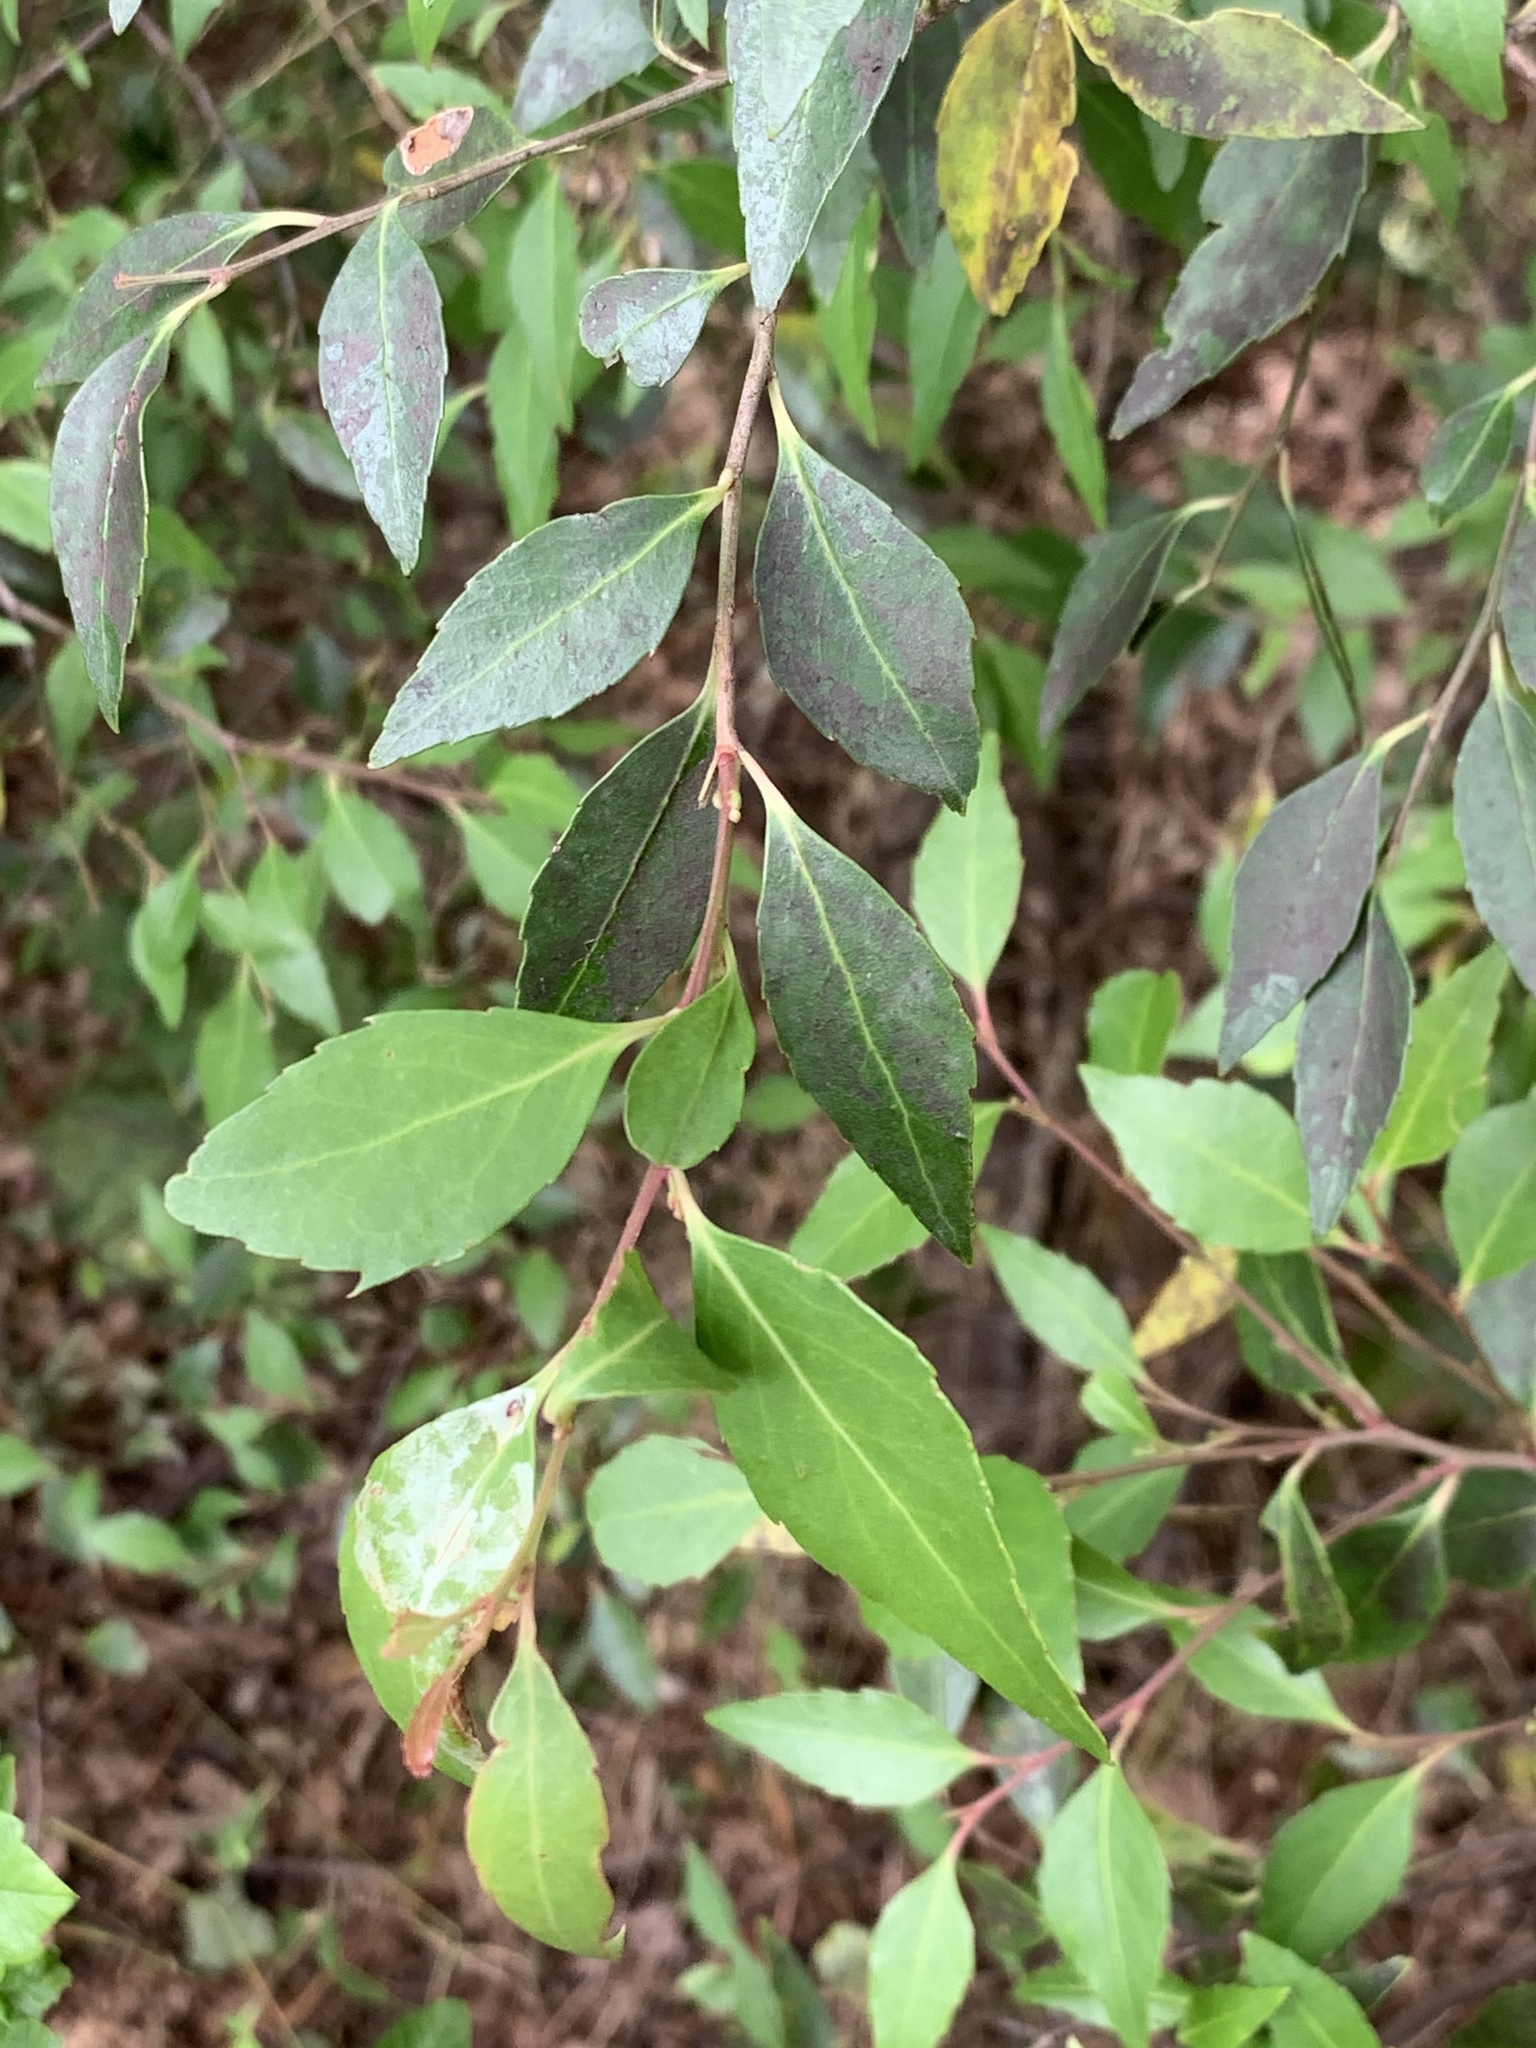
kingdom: Plantae
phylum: Tracheophyta
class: Magnoliopsida
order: Celastrales
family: Celastraceae
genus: Gymnosporia
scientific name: Gymnosporia acuminata
